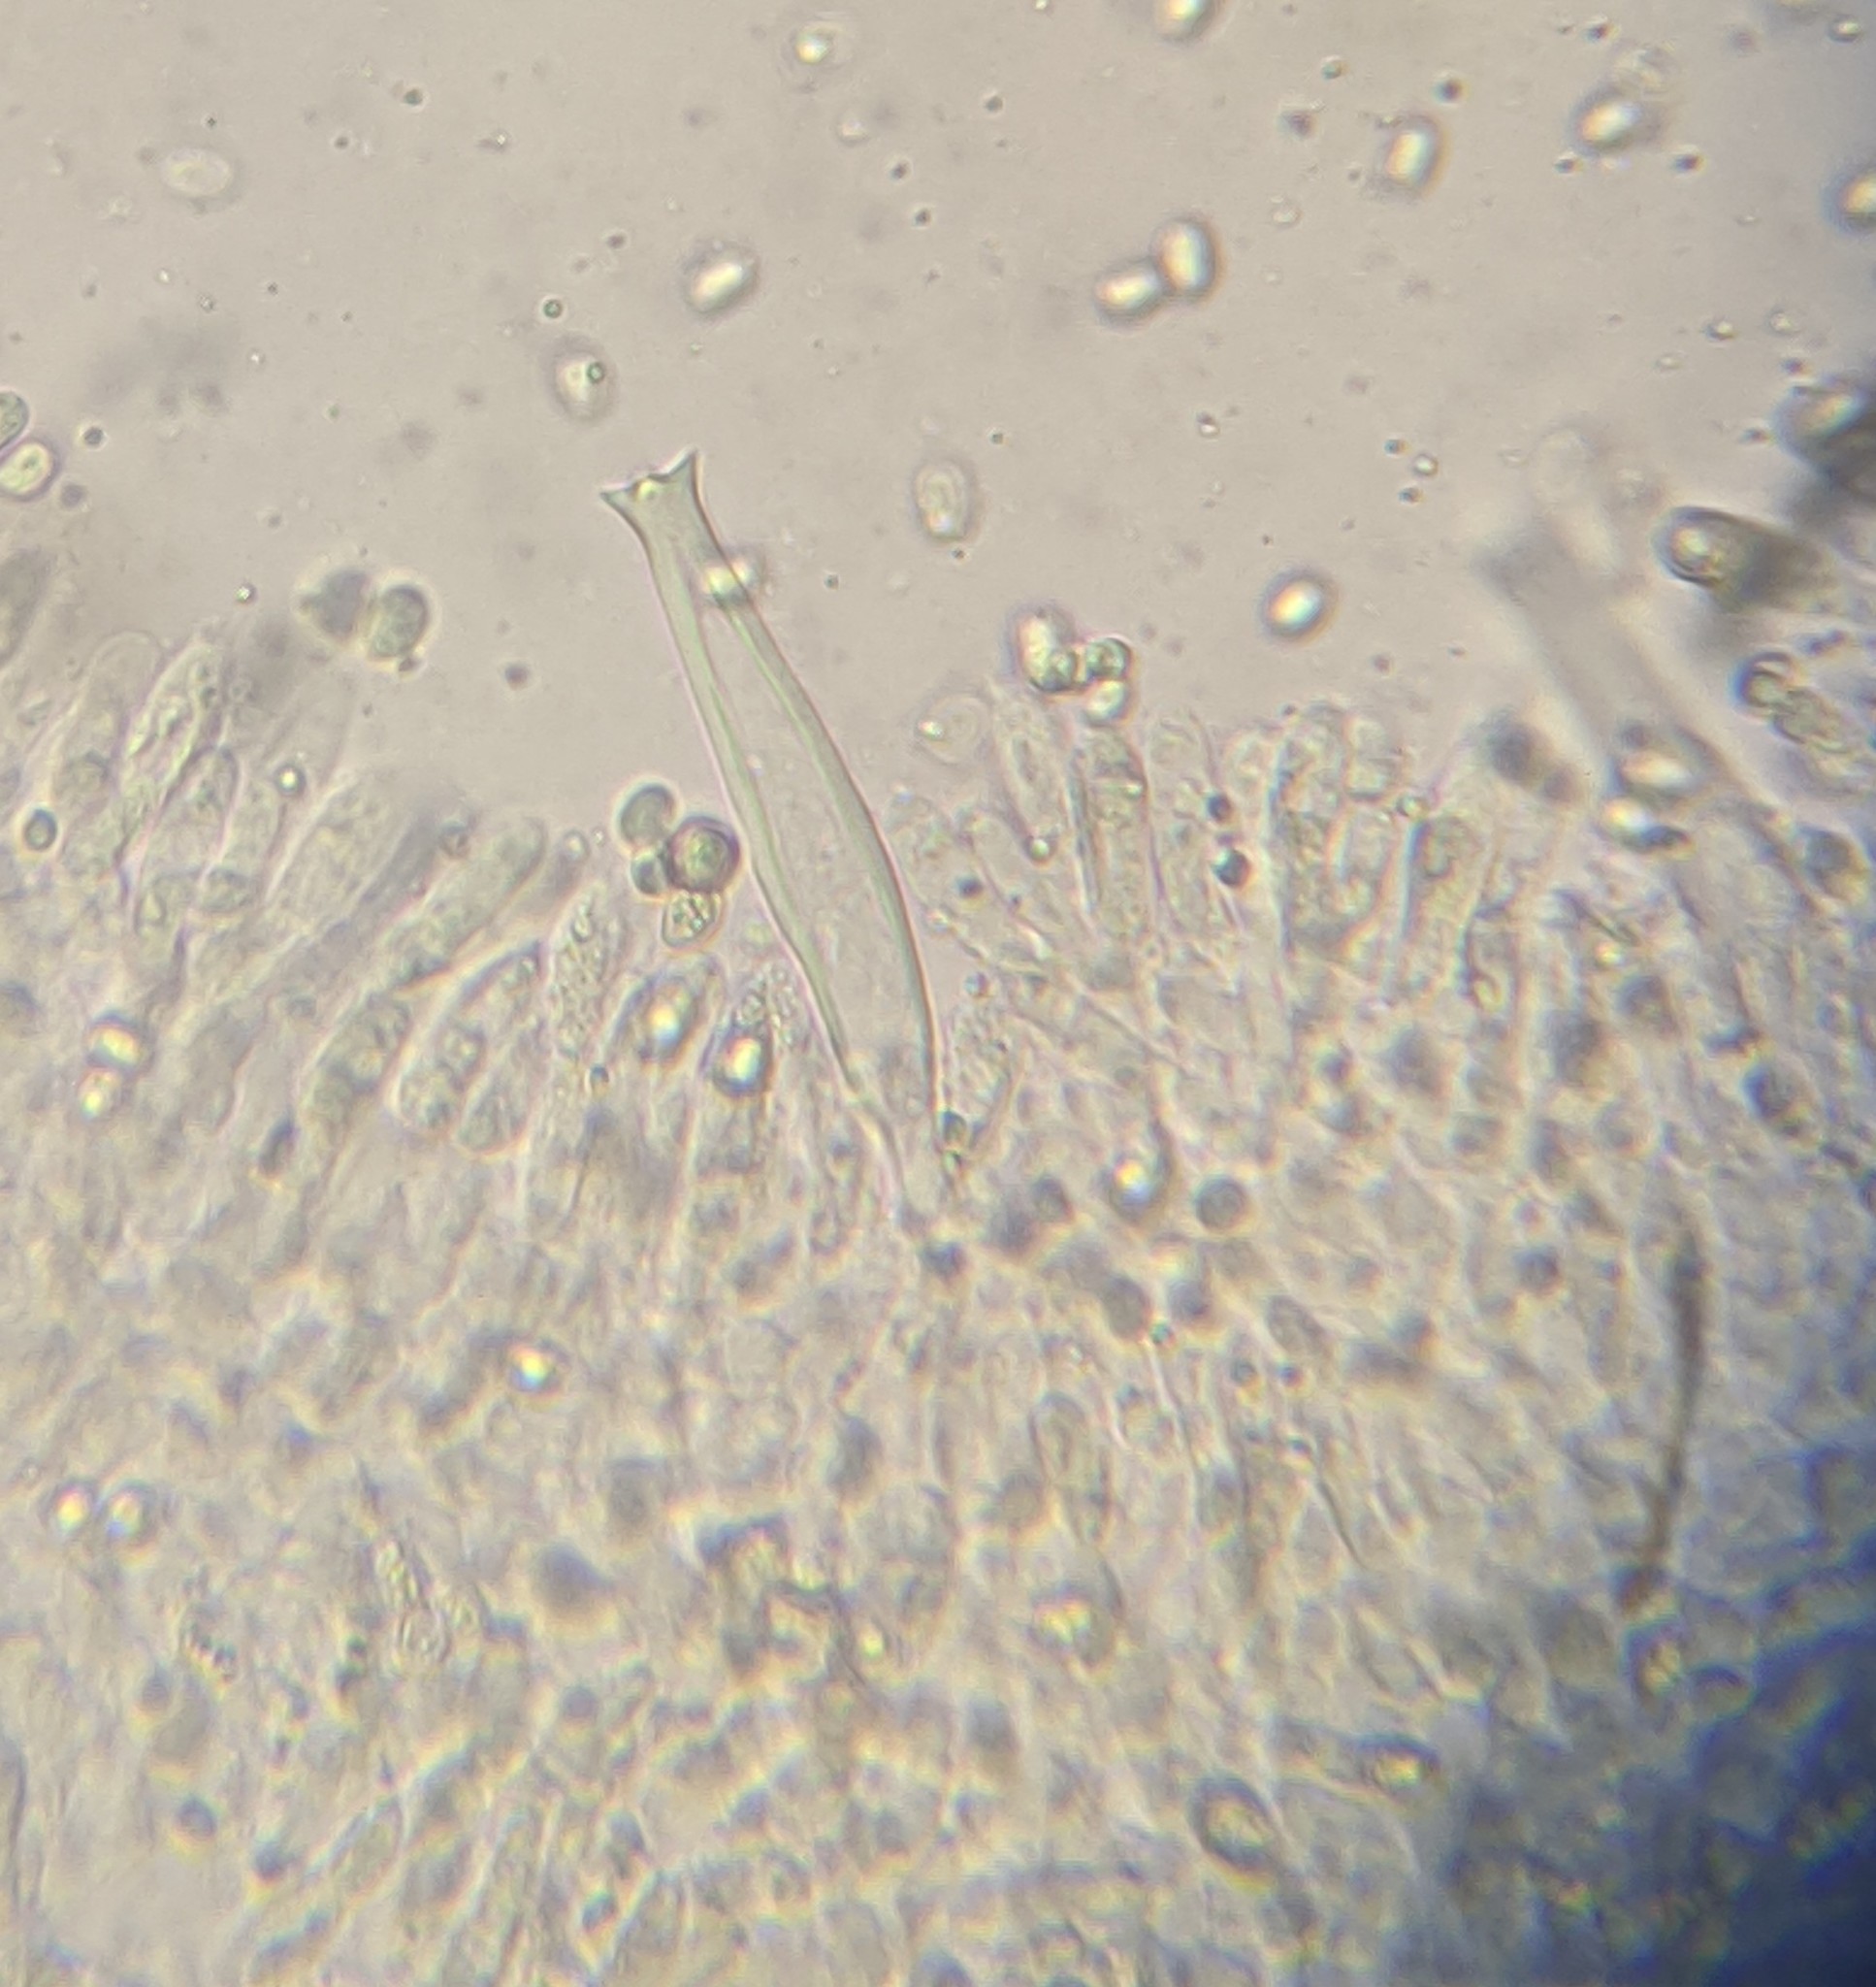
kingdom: Fungi
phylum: Basidiomycota
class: Agaricomycetes
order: Agaricales
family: Pluteaceae
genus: Pluteus
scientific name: Pluteus petasatus
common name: Scaly shield
